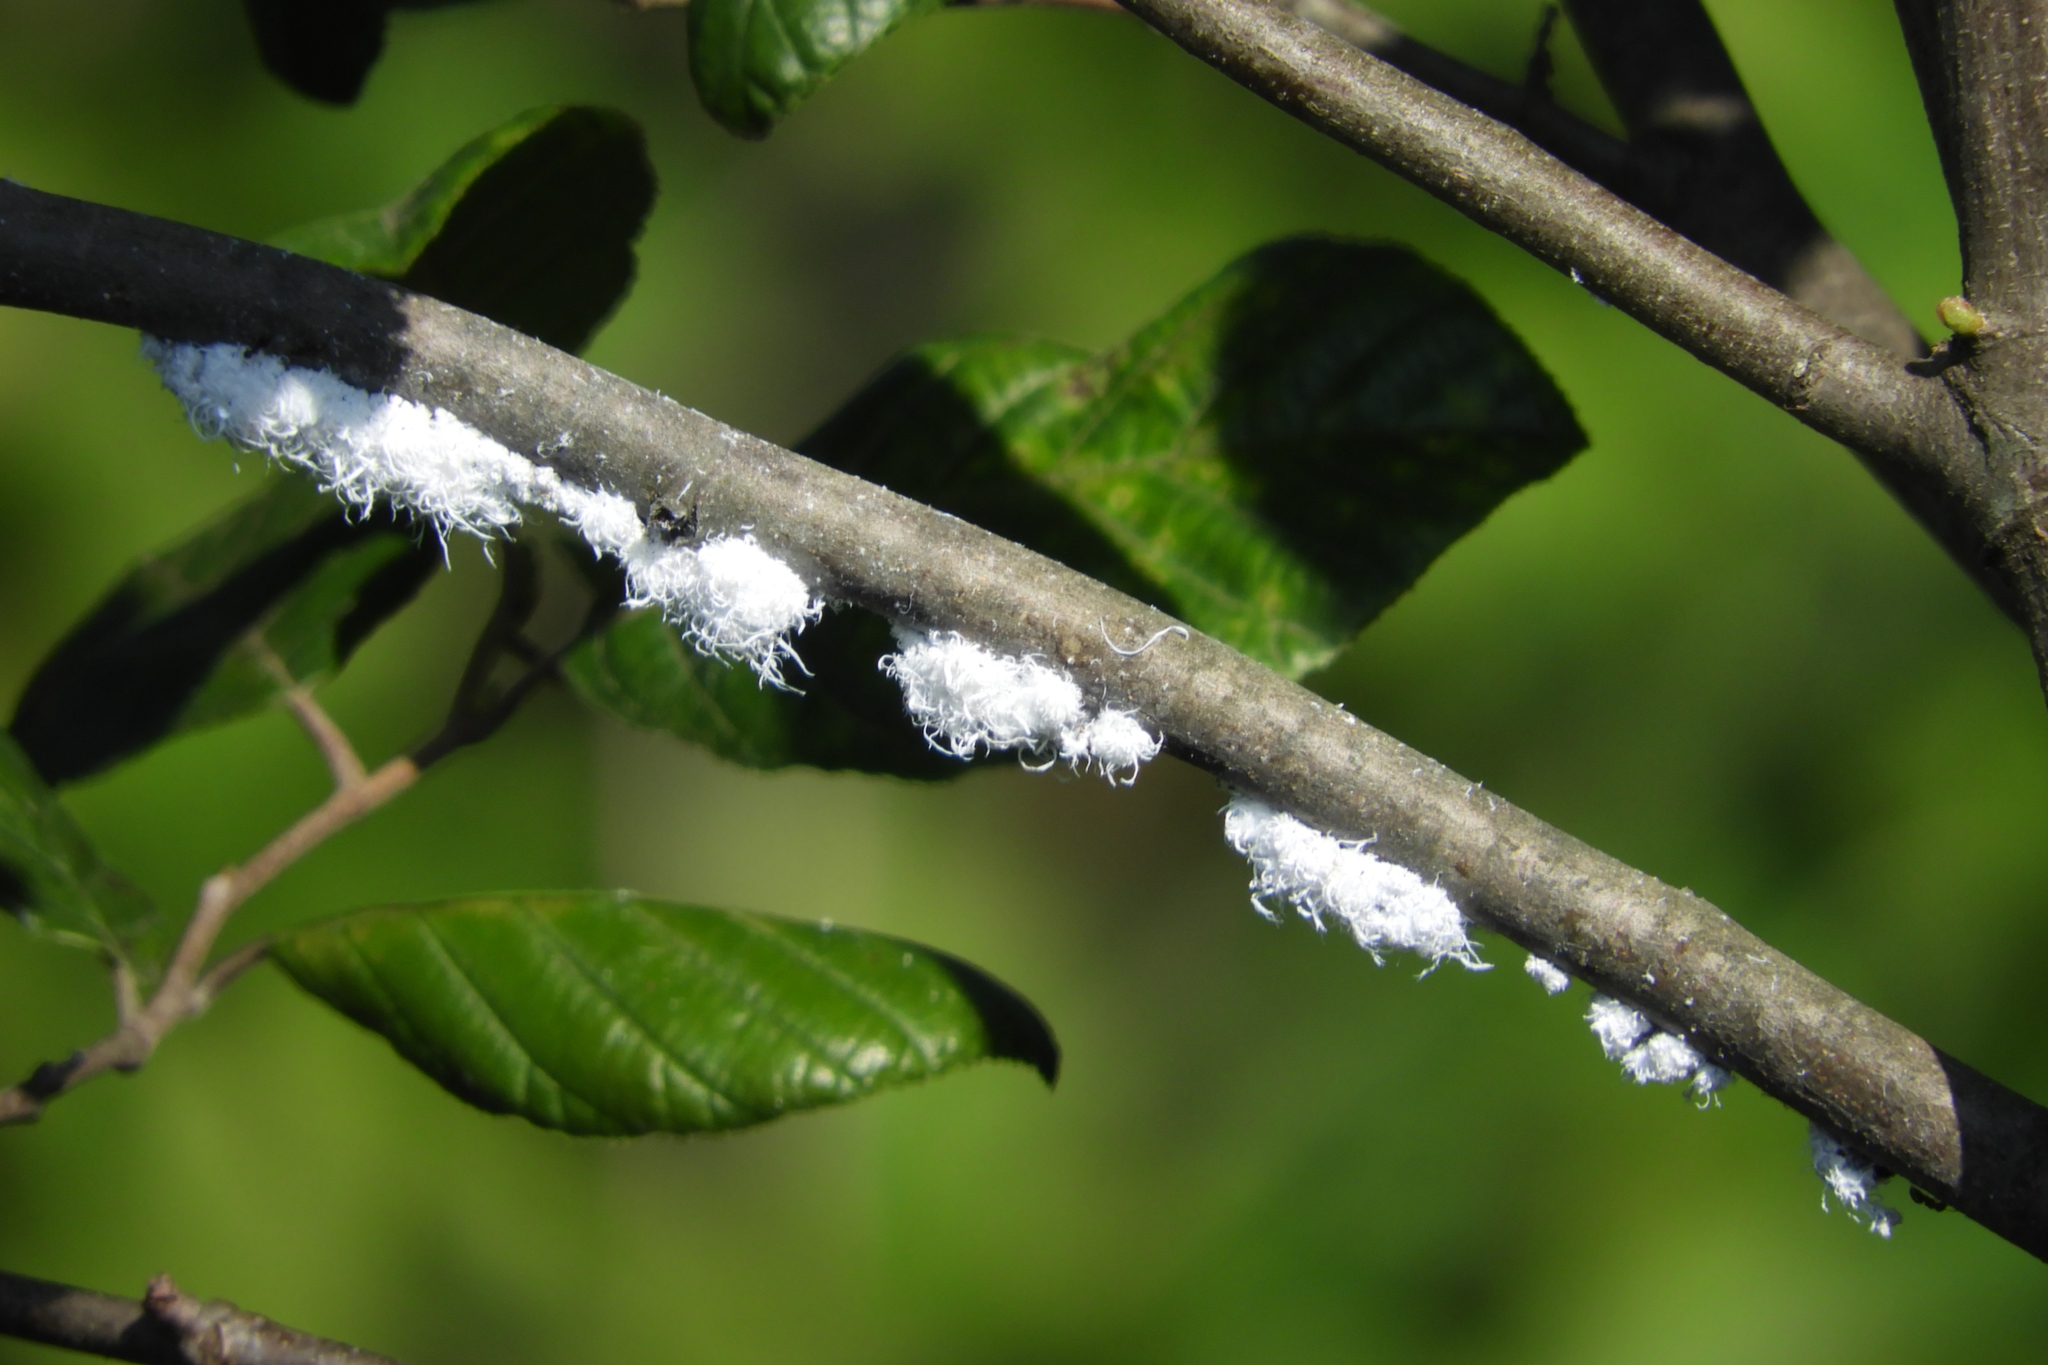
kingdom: Animalia
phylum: Arthropoda
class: Insecta
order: Hemiptera
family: Aphididae
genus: Prociphilus
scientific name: Prociphilus tessellatus
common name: Woolly alder aphid
